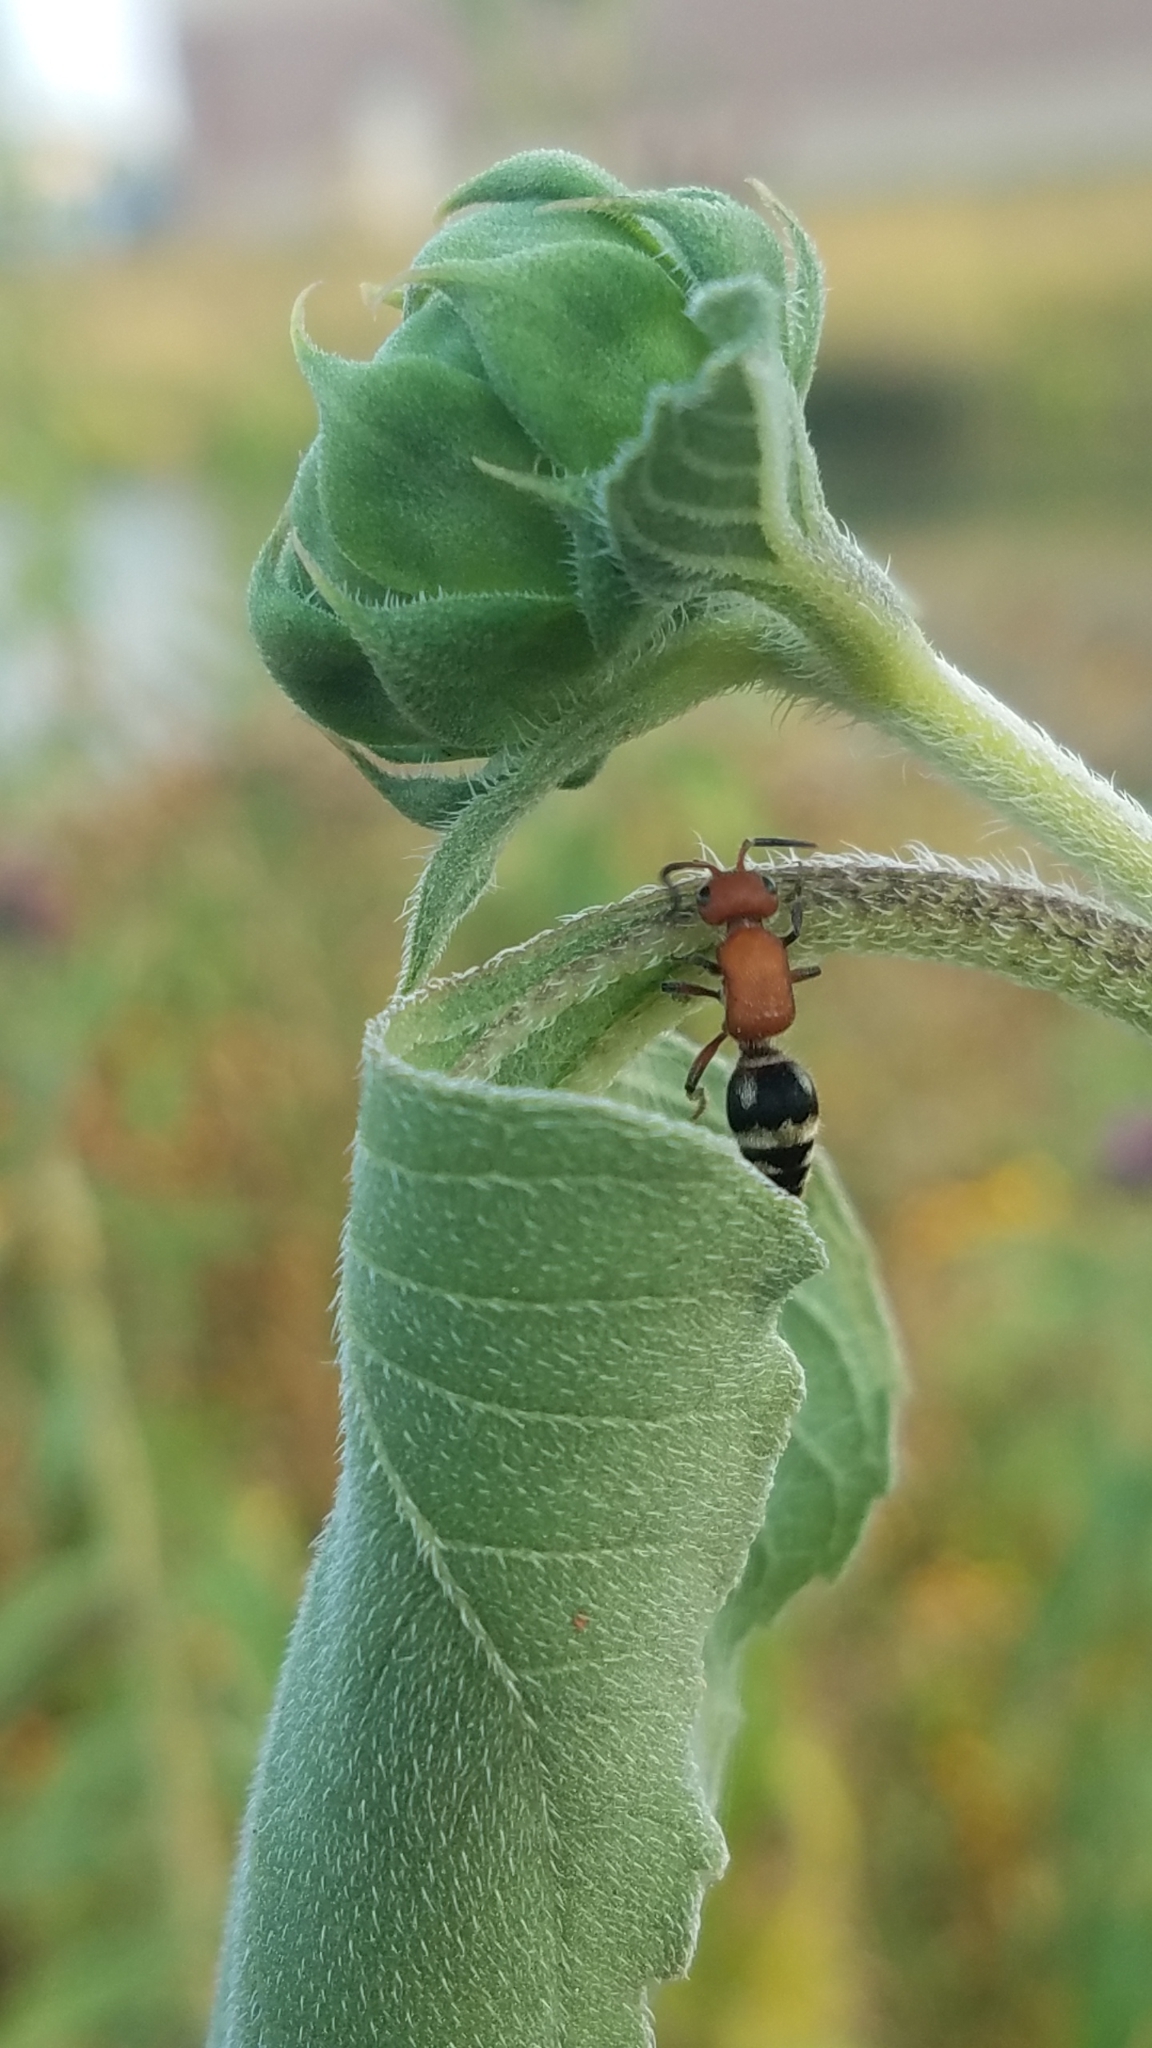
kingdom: Animalia
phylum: Arthropoda
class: Insecta
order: Hymenoptera
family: Mutillidae
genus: Timulla
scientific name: Timulla
